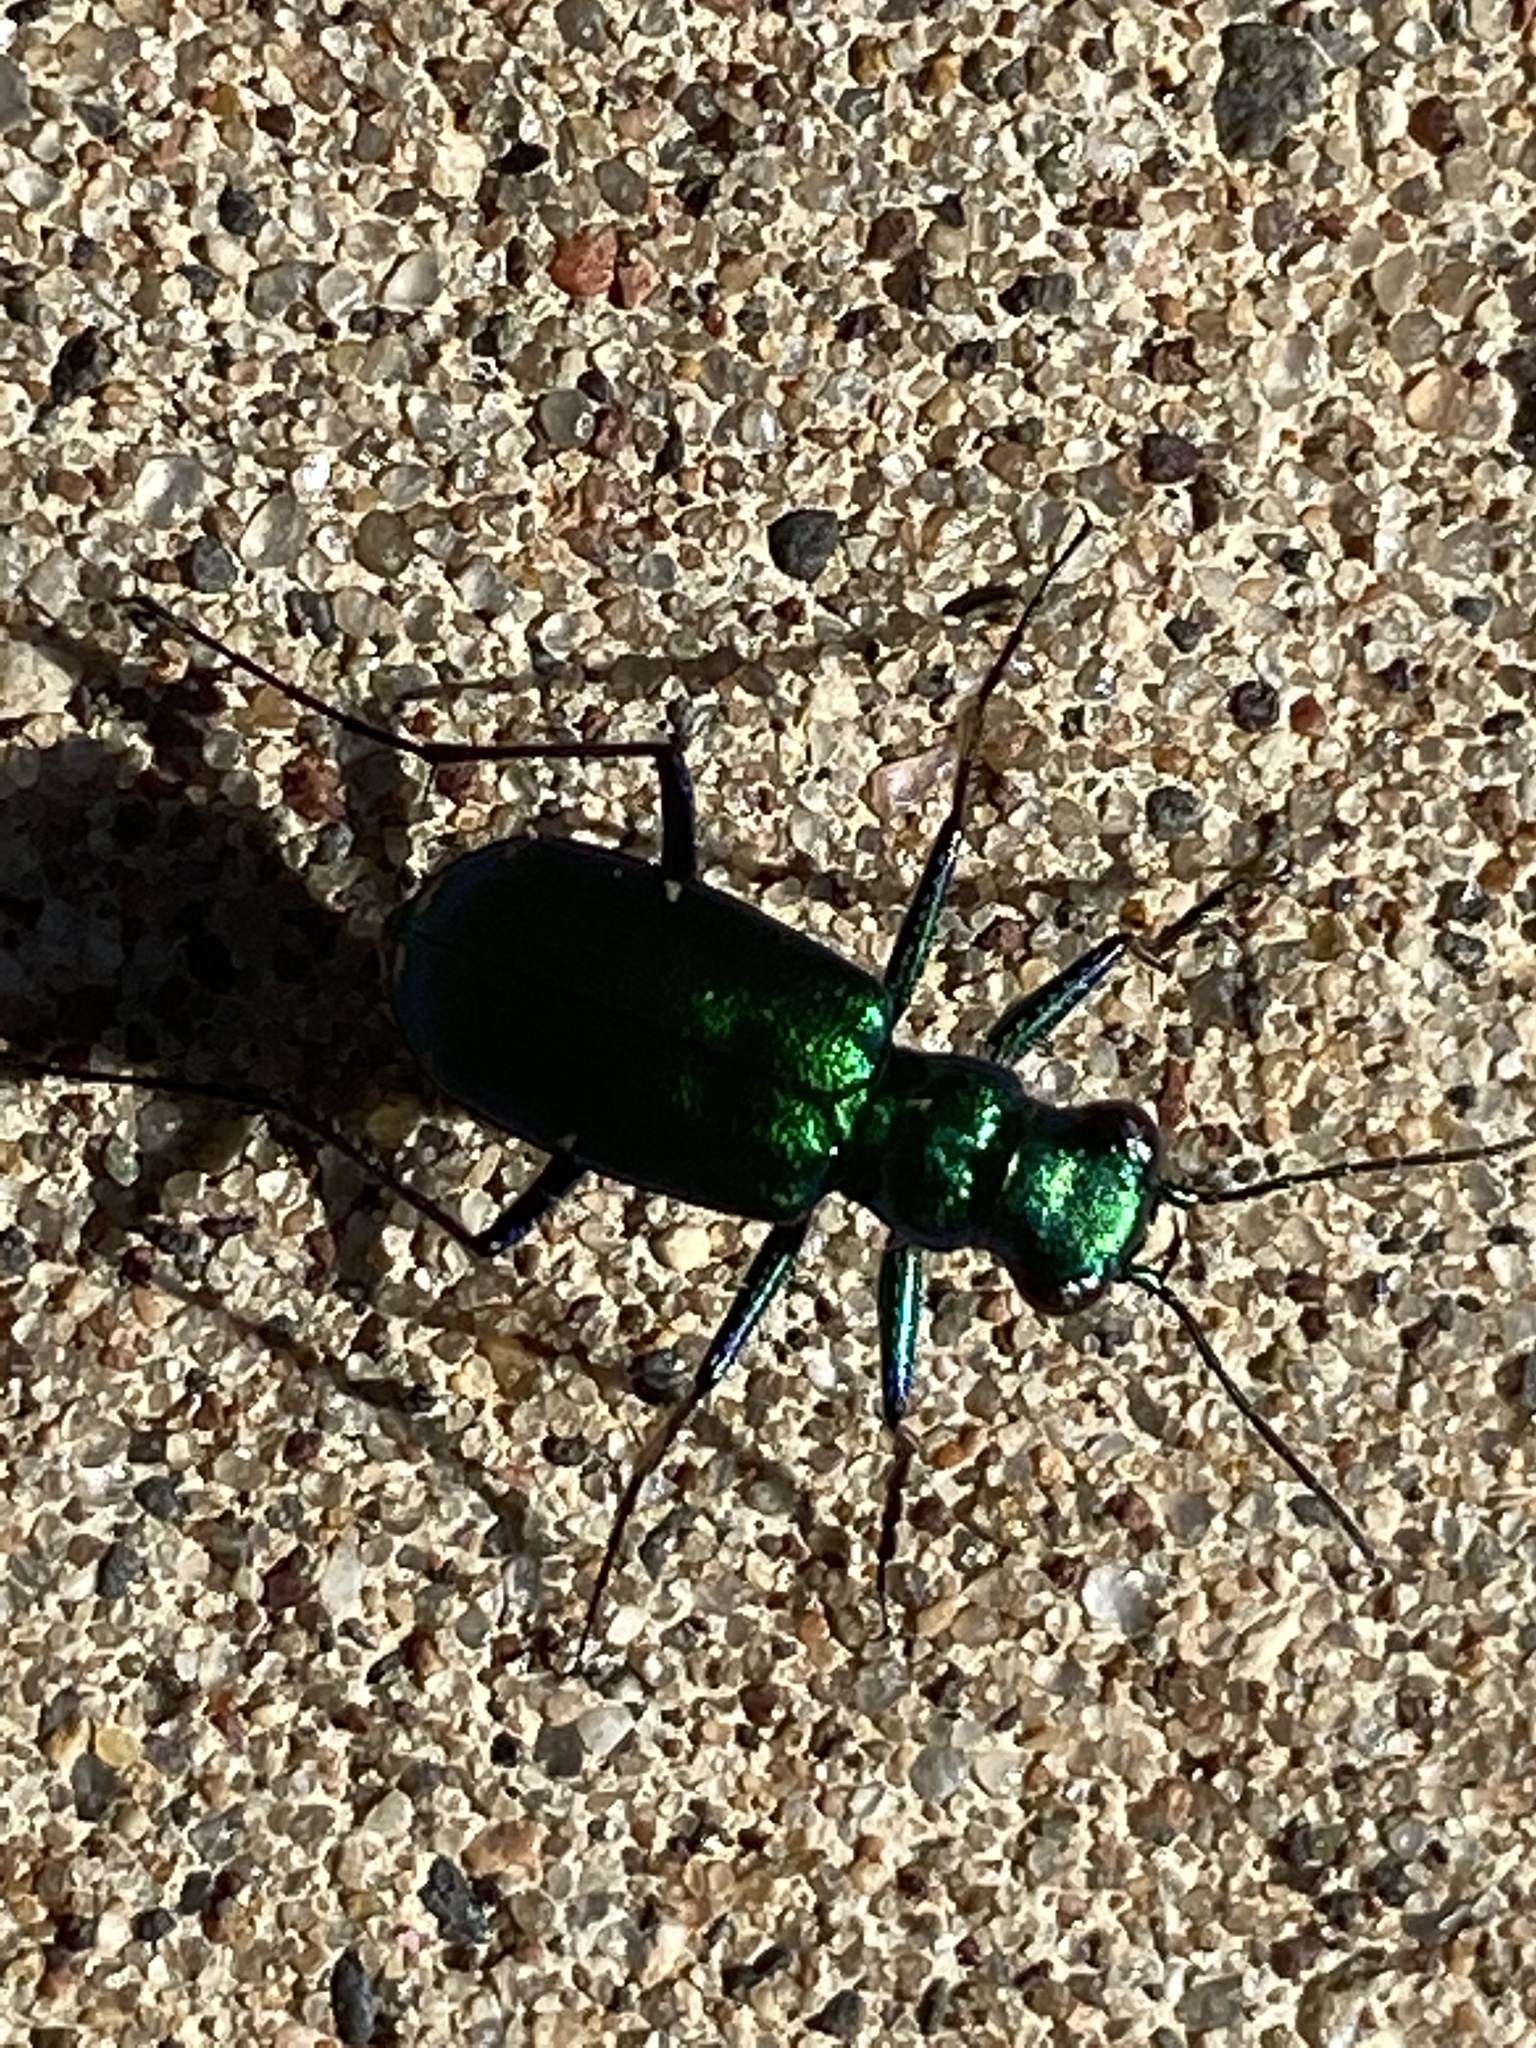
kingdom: Animalia
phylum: Arthropoda
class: Insecta
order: Coleoptera
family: Carabidae
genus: Cicindela
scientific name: Cicindela sexguttata
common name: Six-spotted tiger beetle
